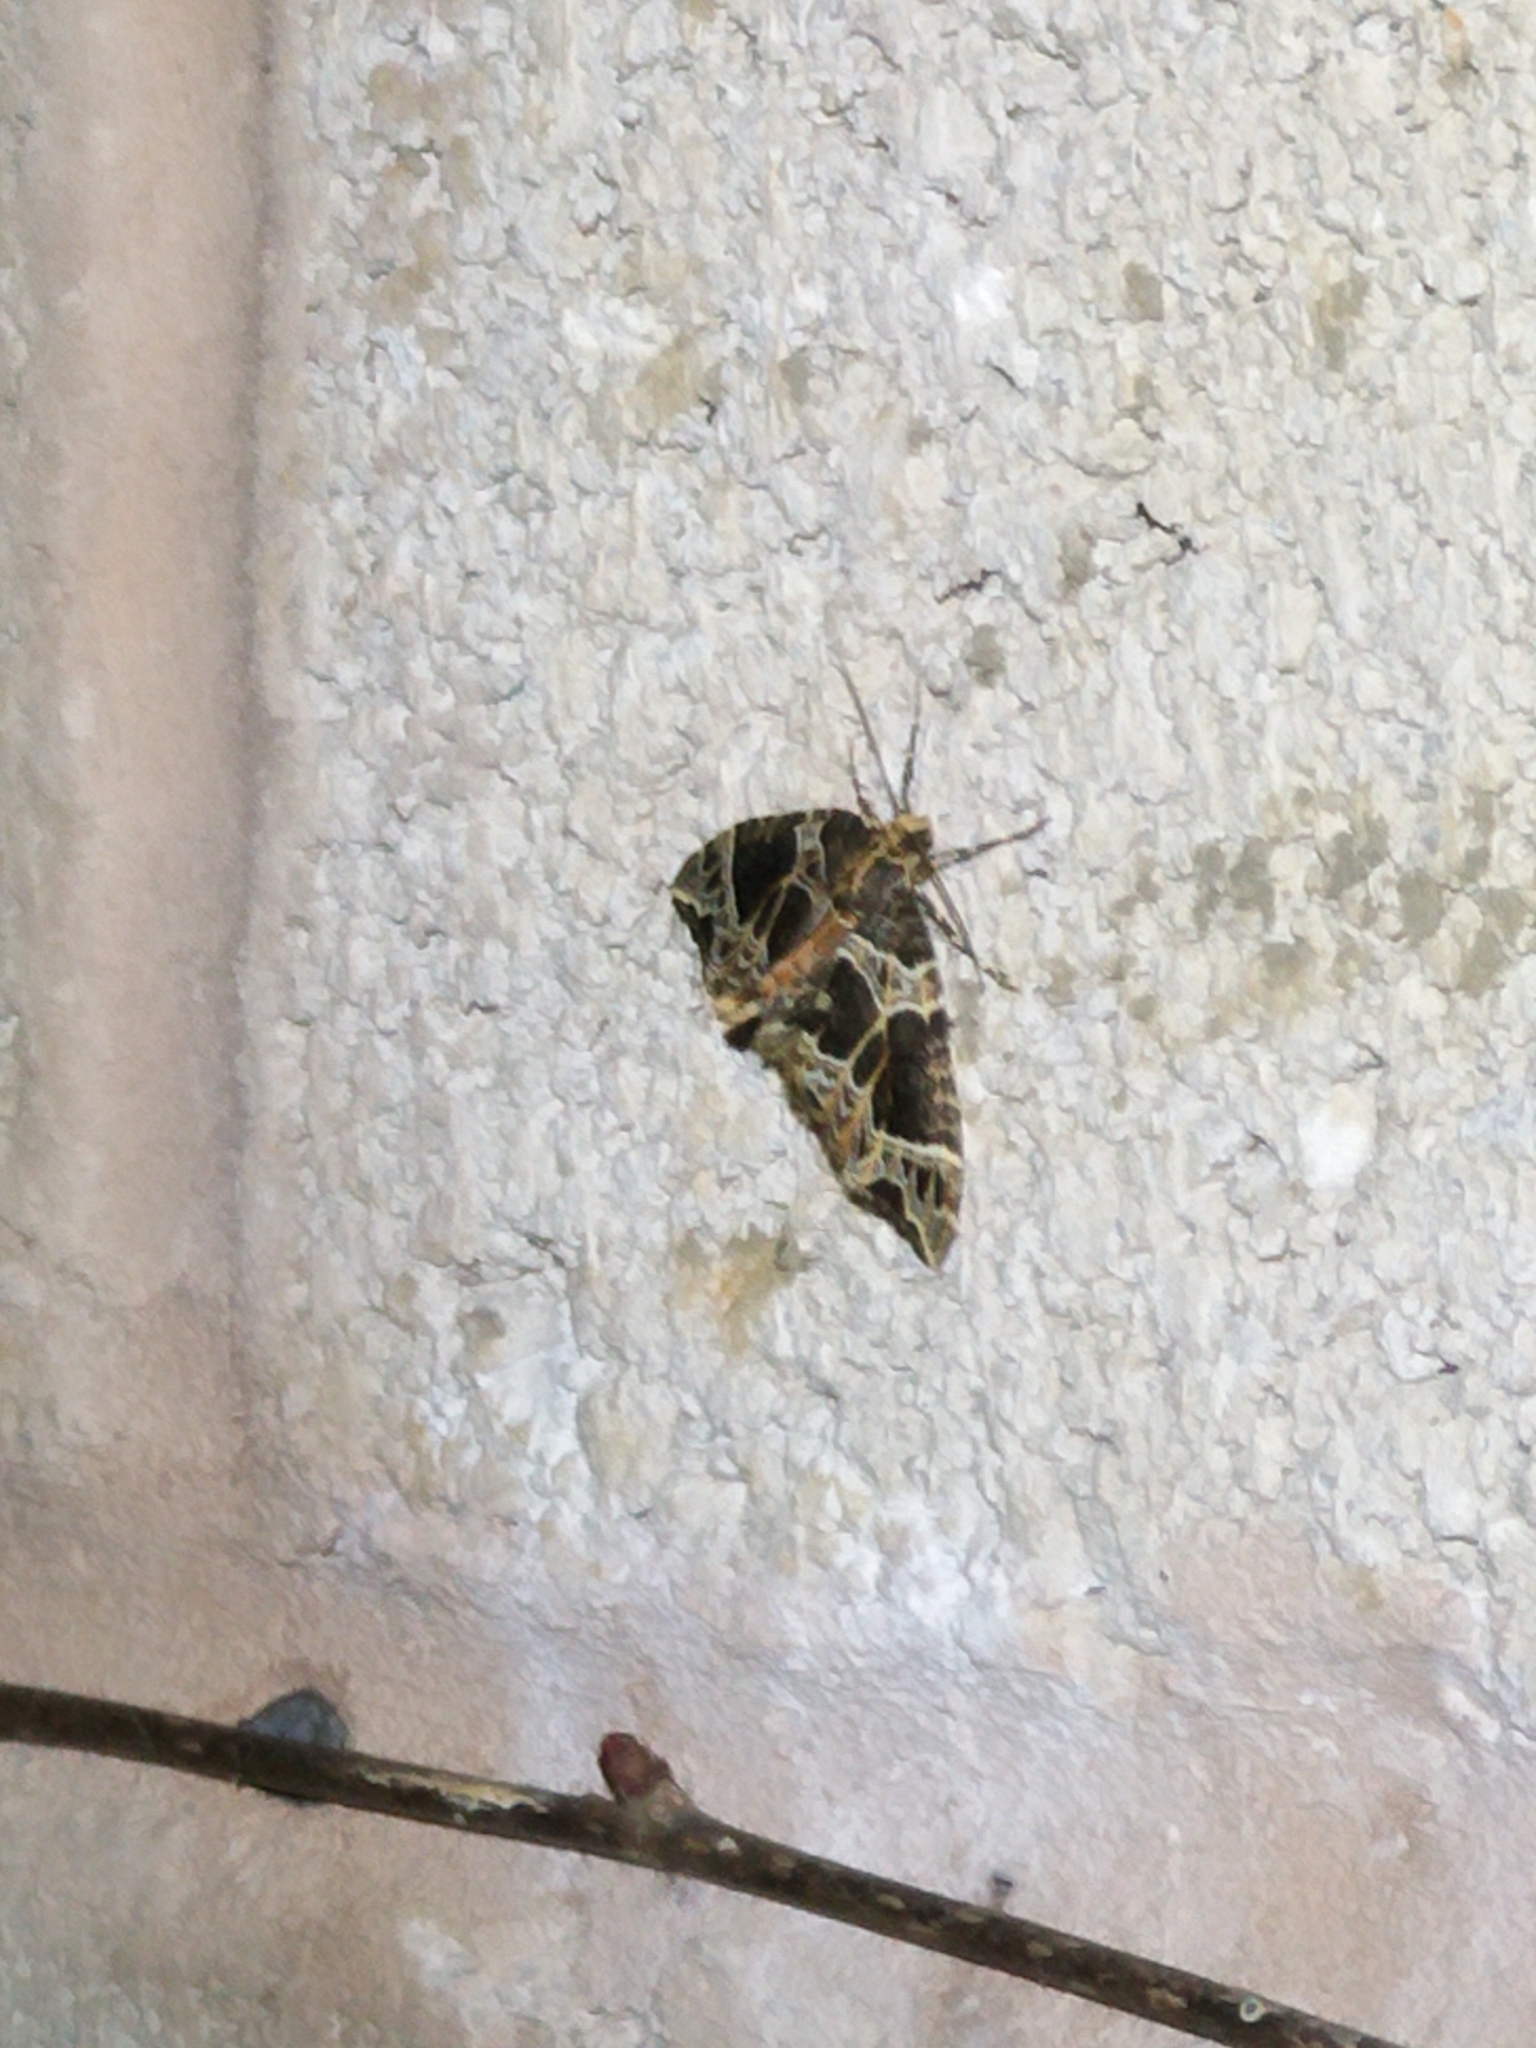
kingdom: Animalia
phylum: Arthropoda
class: Insecta
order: Lepidoptera
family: Geometridae
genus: Ecliptopera
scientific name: Ecliptopera silaceata
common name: Small phoenix
